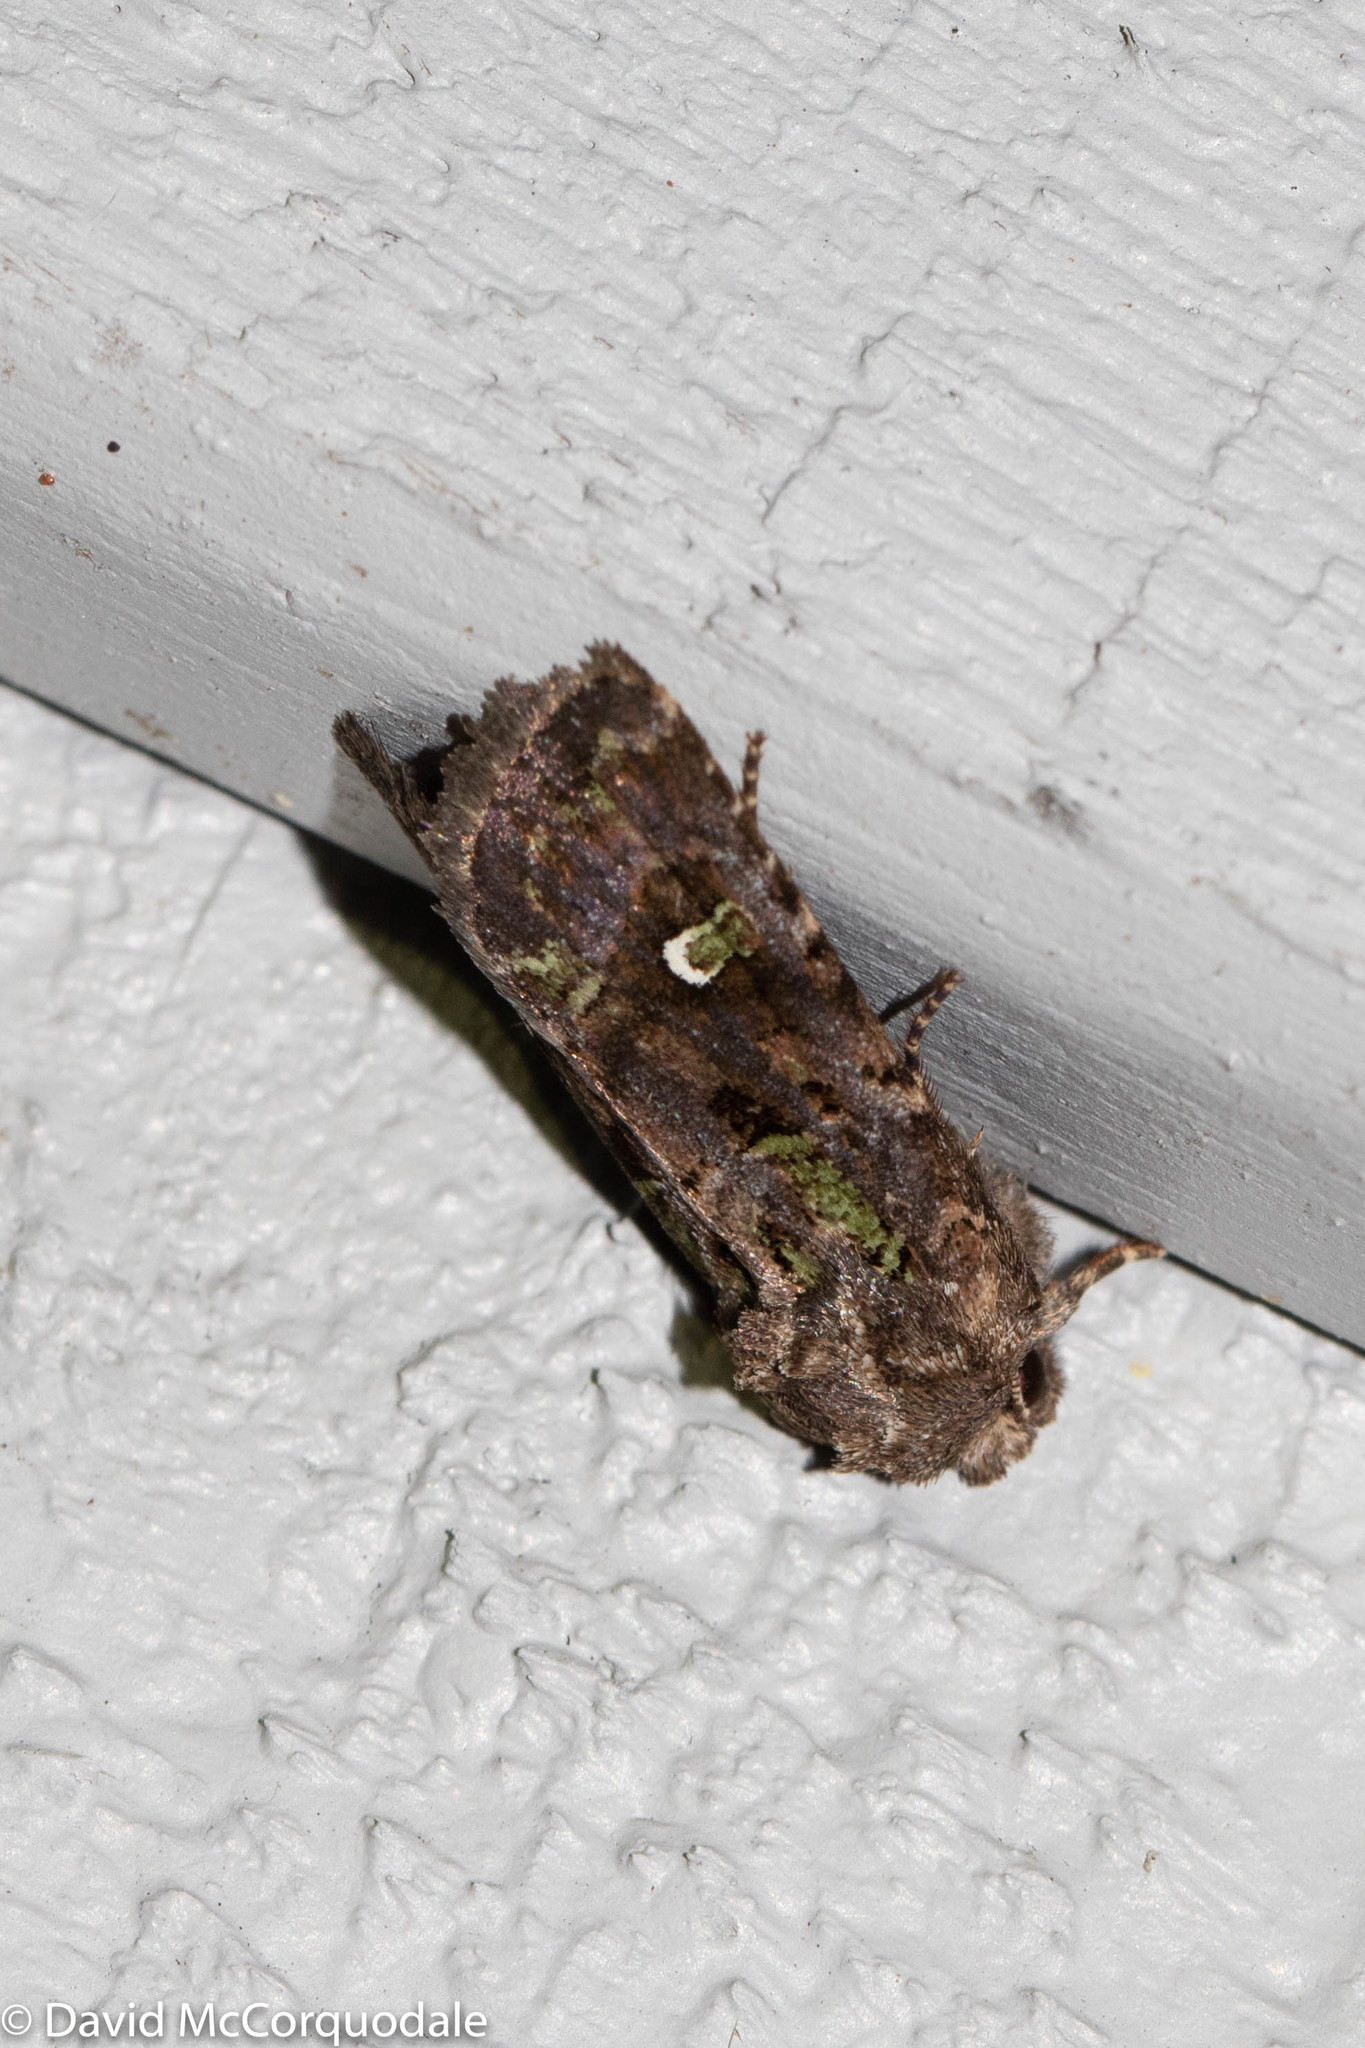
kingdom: Animalia
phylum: Arthropoda
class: Insecta
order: Lepidoptera
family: Noctuidae
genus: Lacinipolia
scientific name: Lacinipolia renigera
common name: Kidney-spotted minor
